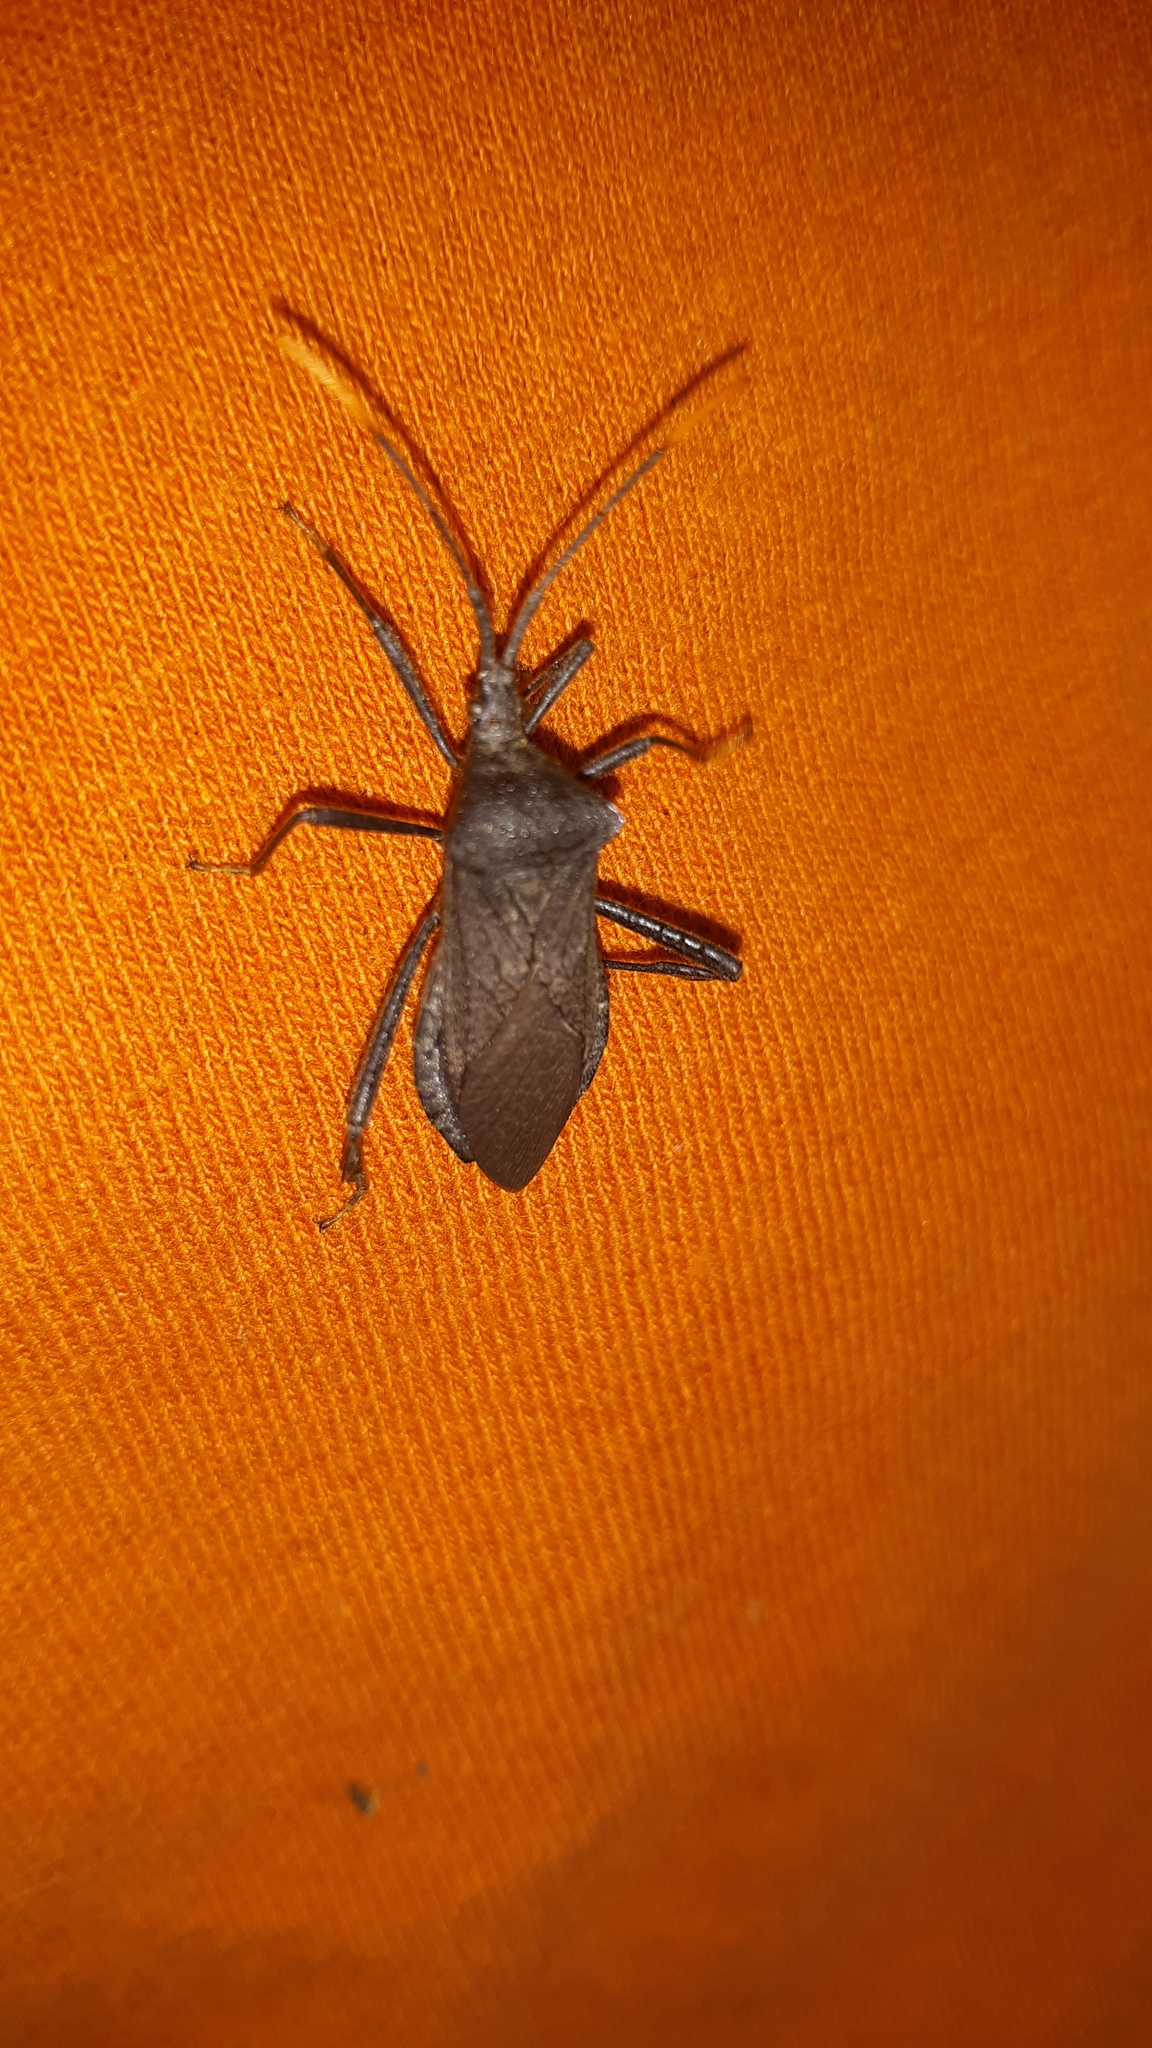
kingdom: Animalia
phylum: Arthropoda
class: Insecta
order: Hemiptera
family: Coreidae
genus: Acanthocephala
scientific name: Acanthocephala terminalis
